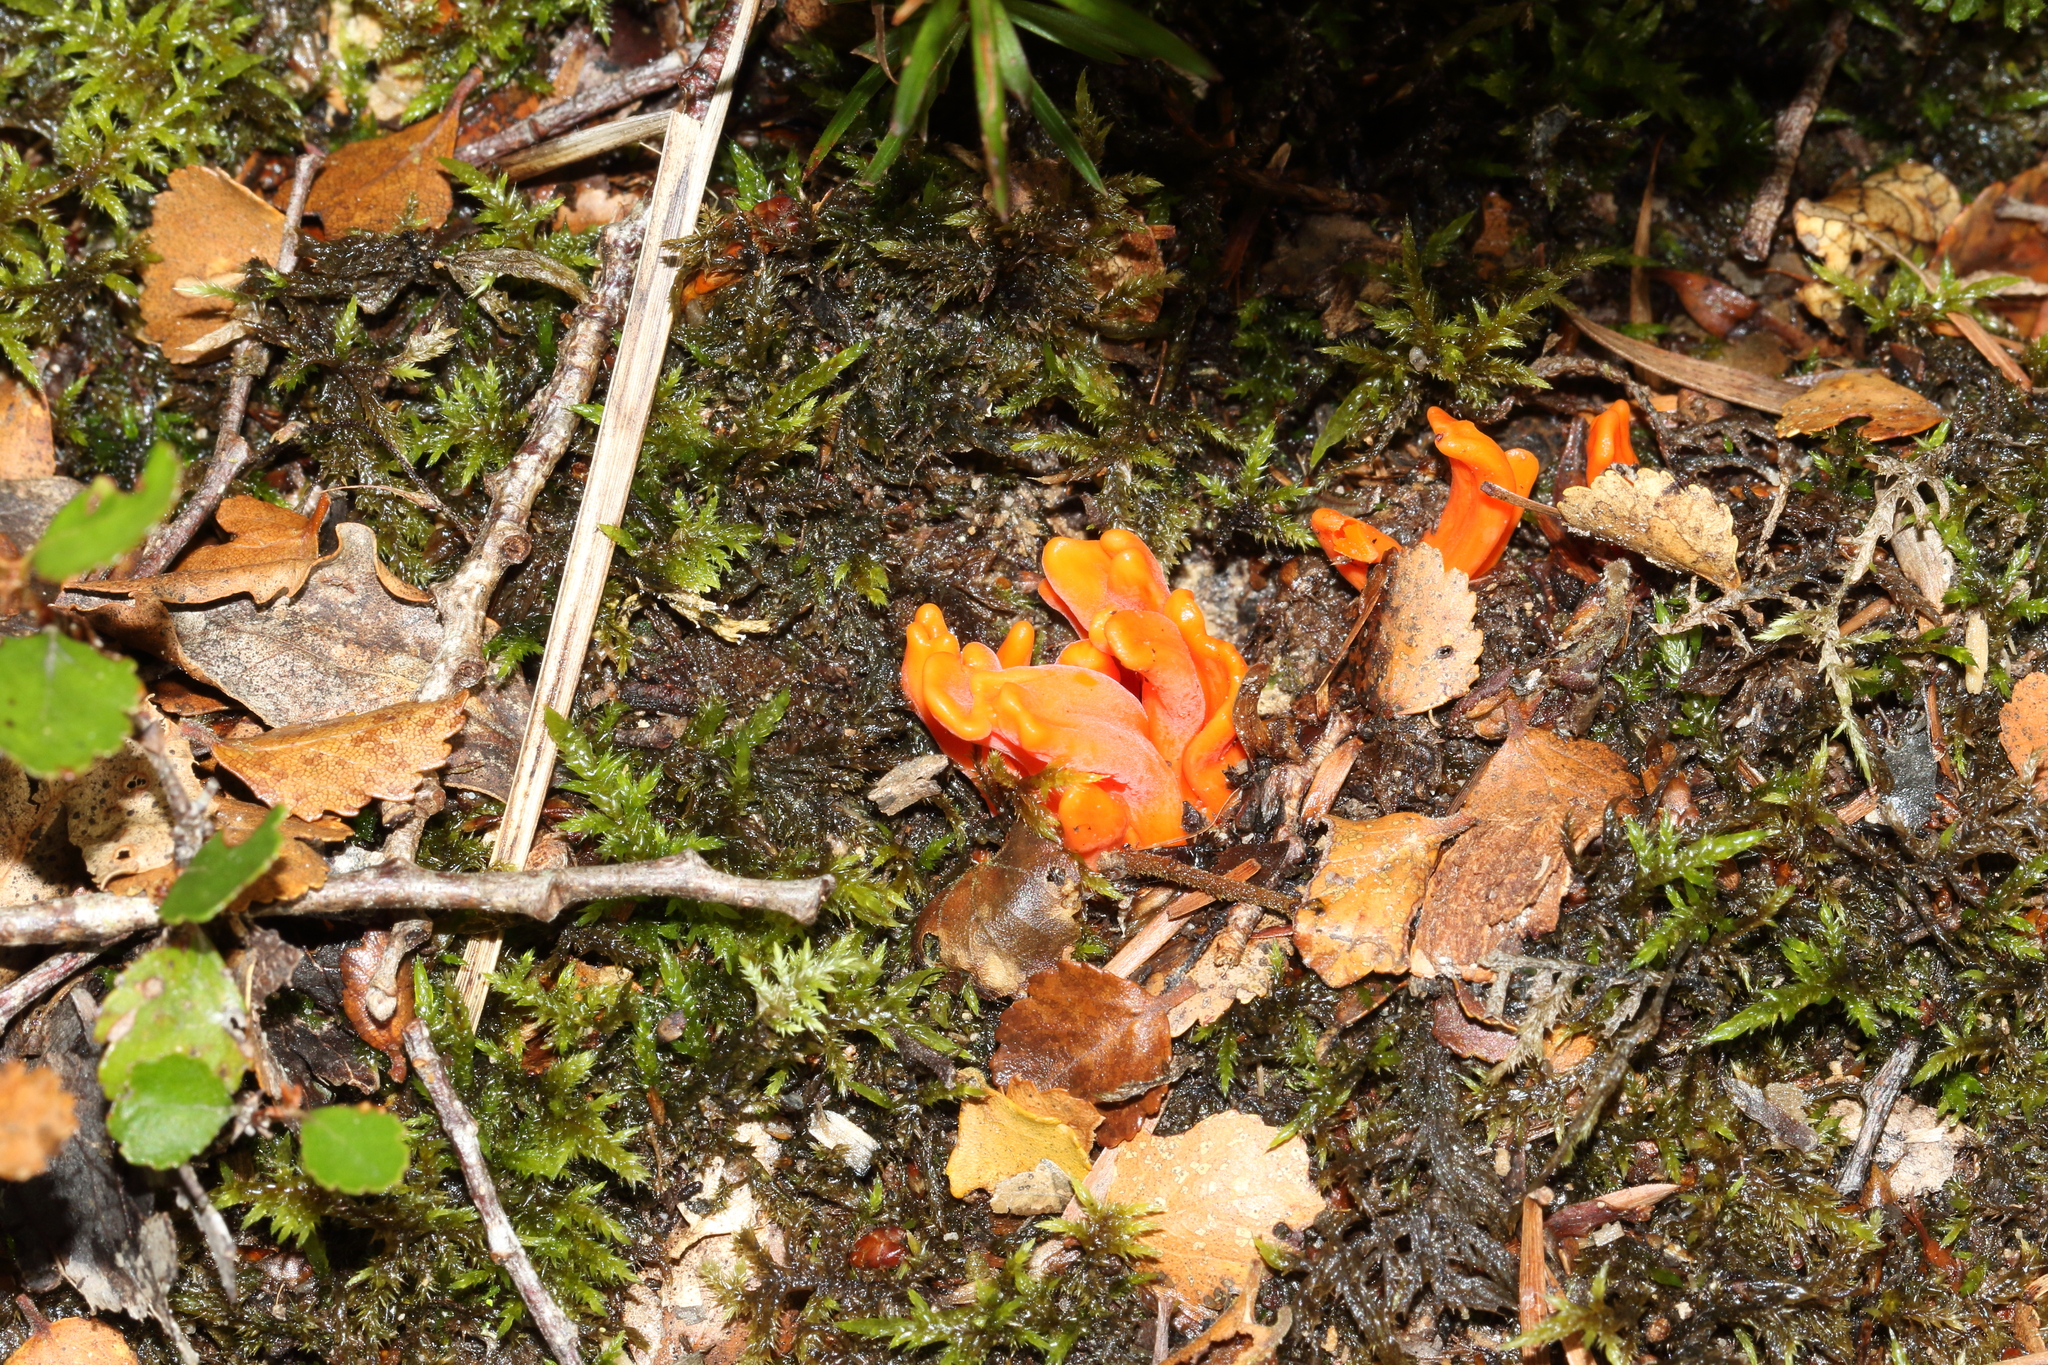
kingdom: Fungi
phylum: Basidiomycota
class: Agaricomycetes
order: Agaricales
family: Clavariaceae
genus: Clavulinopsis
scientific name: Clavulinopsis sulcata
